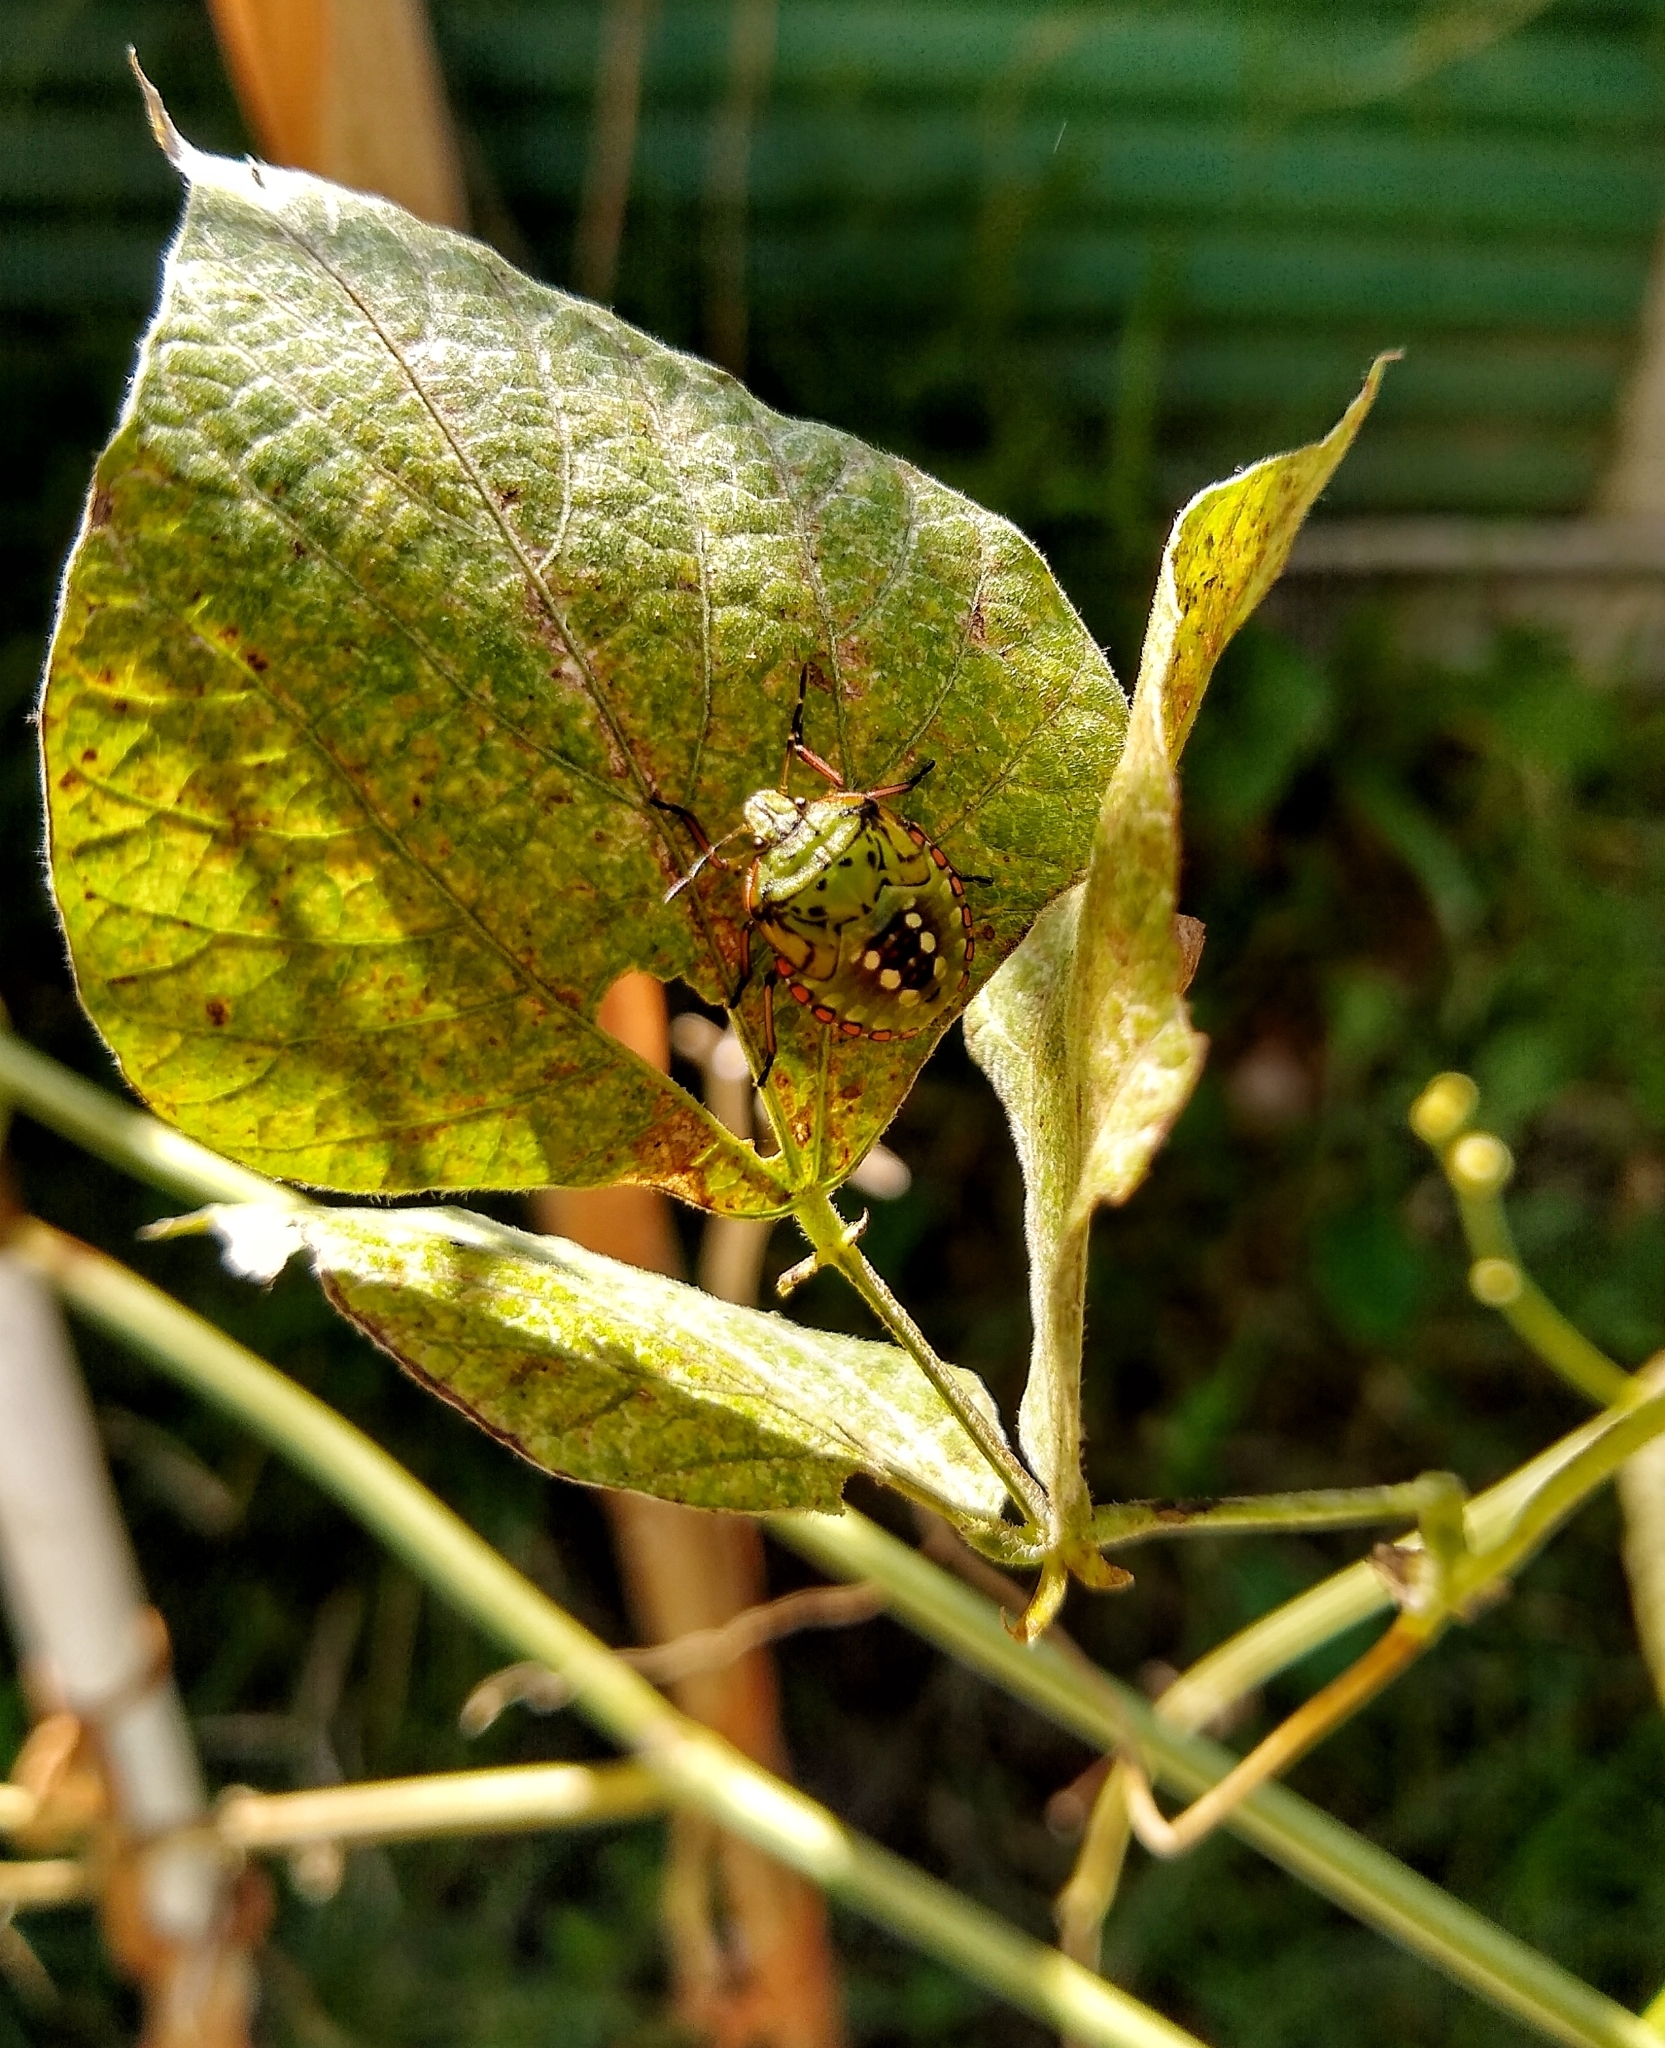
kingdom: Animalia
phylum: Arthropoda
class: Insecta
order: Hemiptera
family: Pentatomidae
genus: Nezara
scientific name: Nezara viridula
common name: Southern green stink bug
